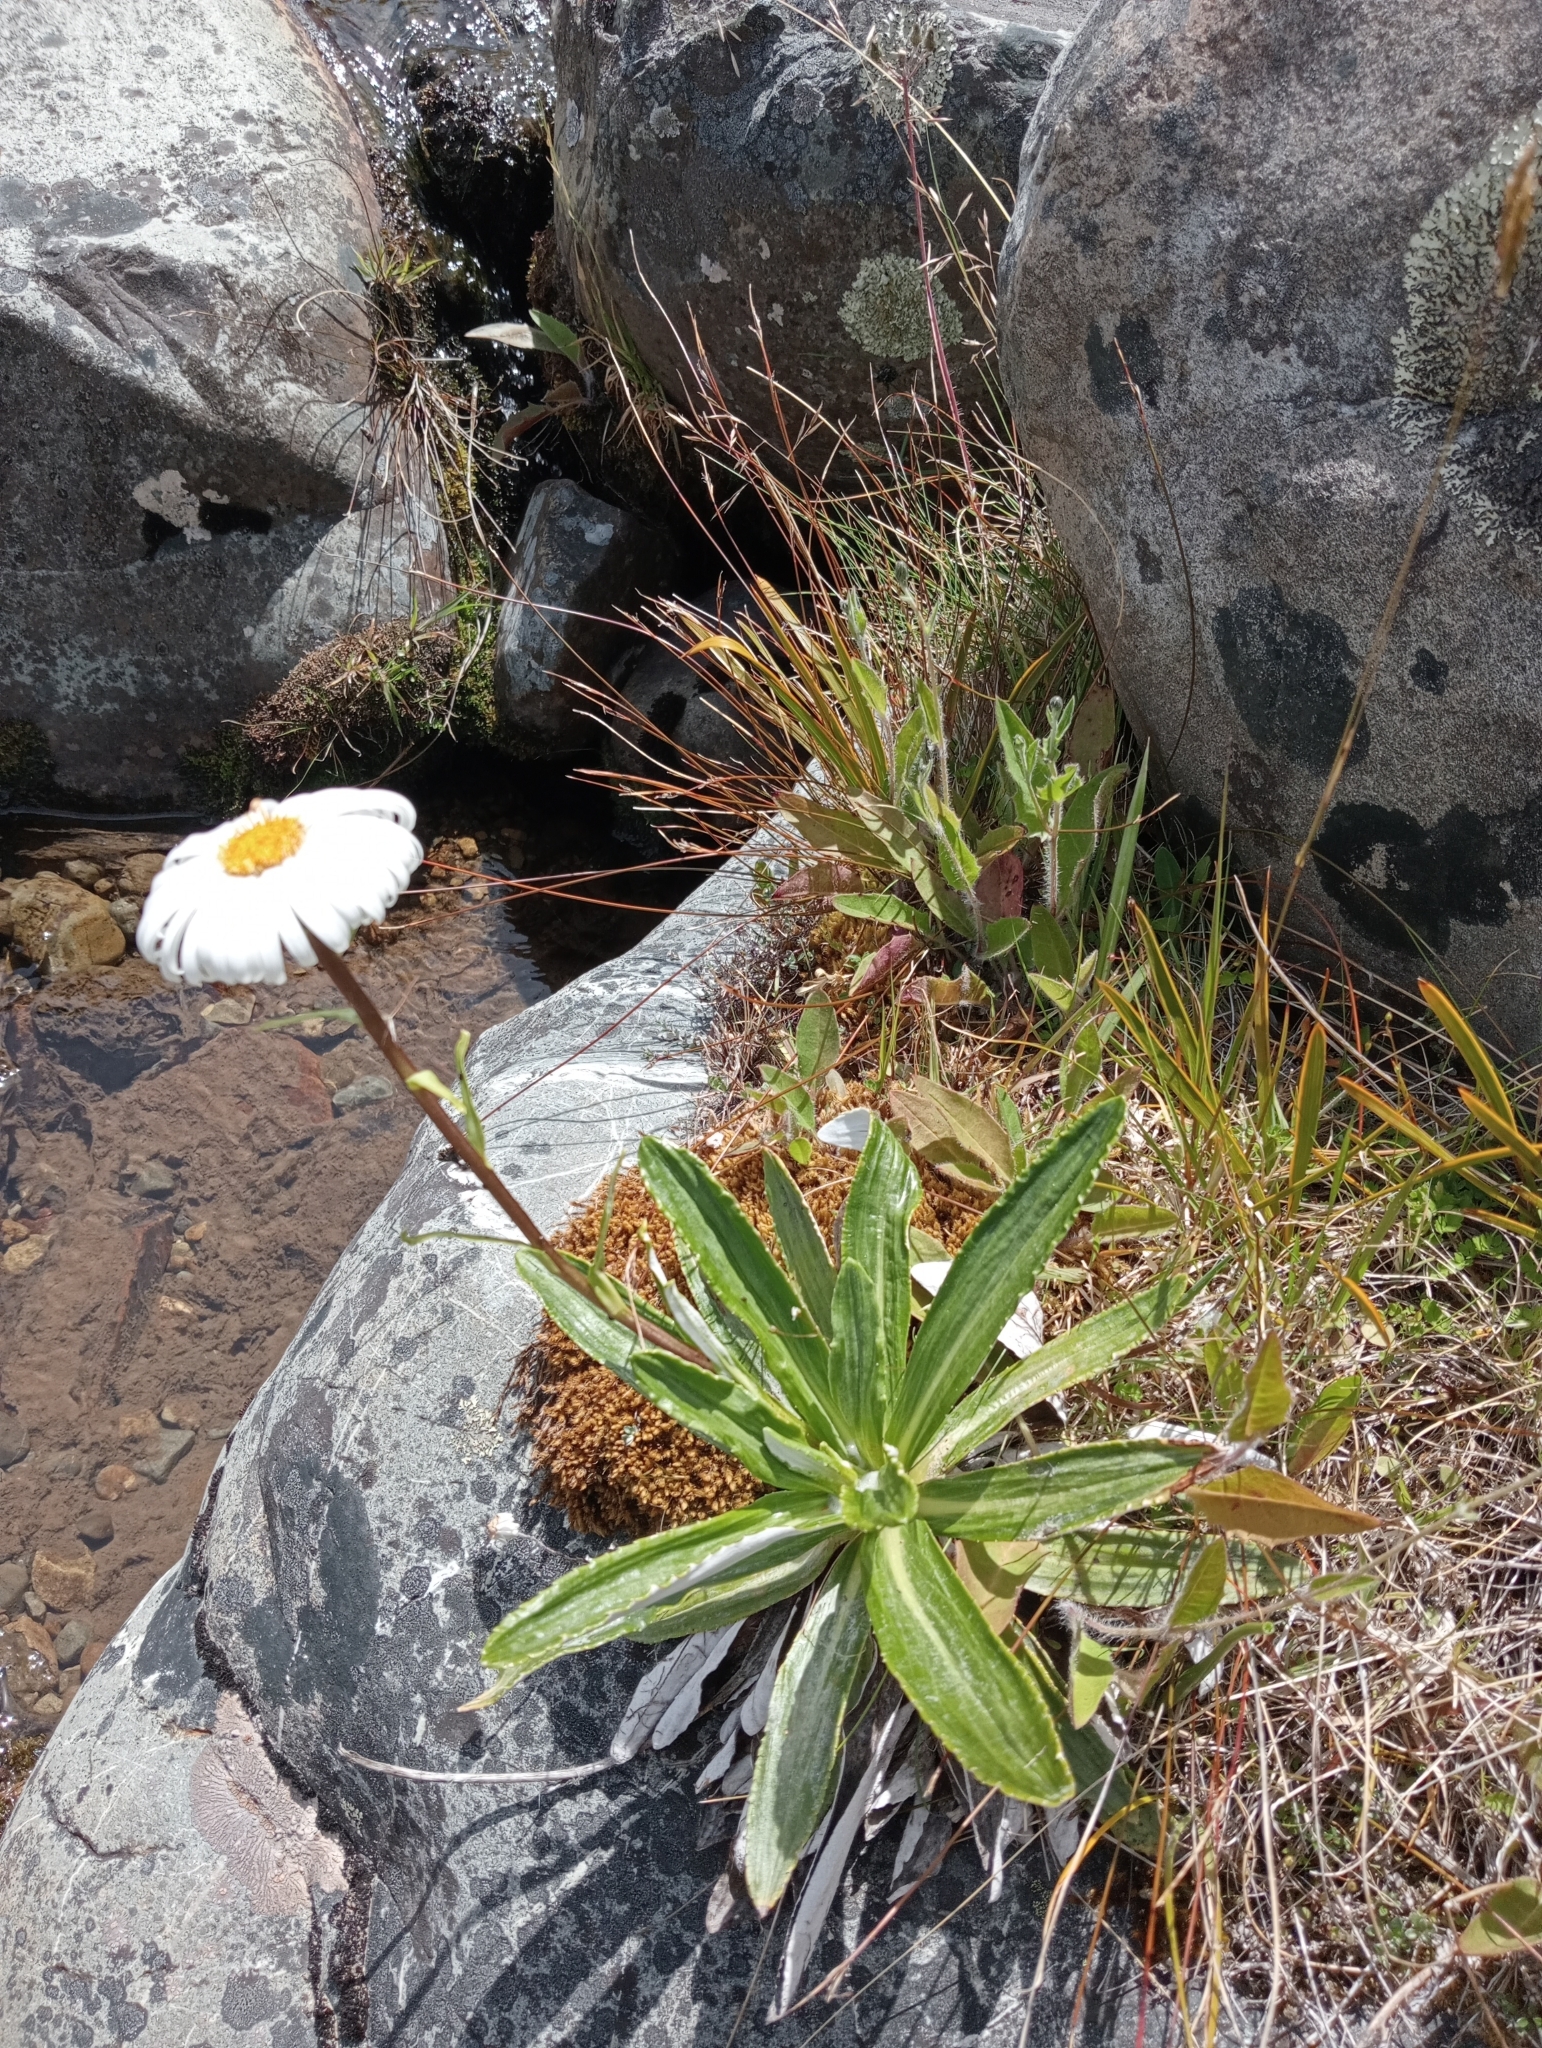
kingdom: Plantae
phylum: Tracheophyta
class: Magnoliopsida
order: Asterales
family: Asteraceae
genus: Celmisia
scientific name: Celmisia densiflora
